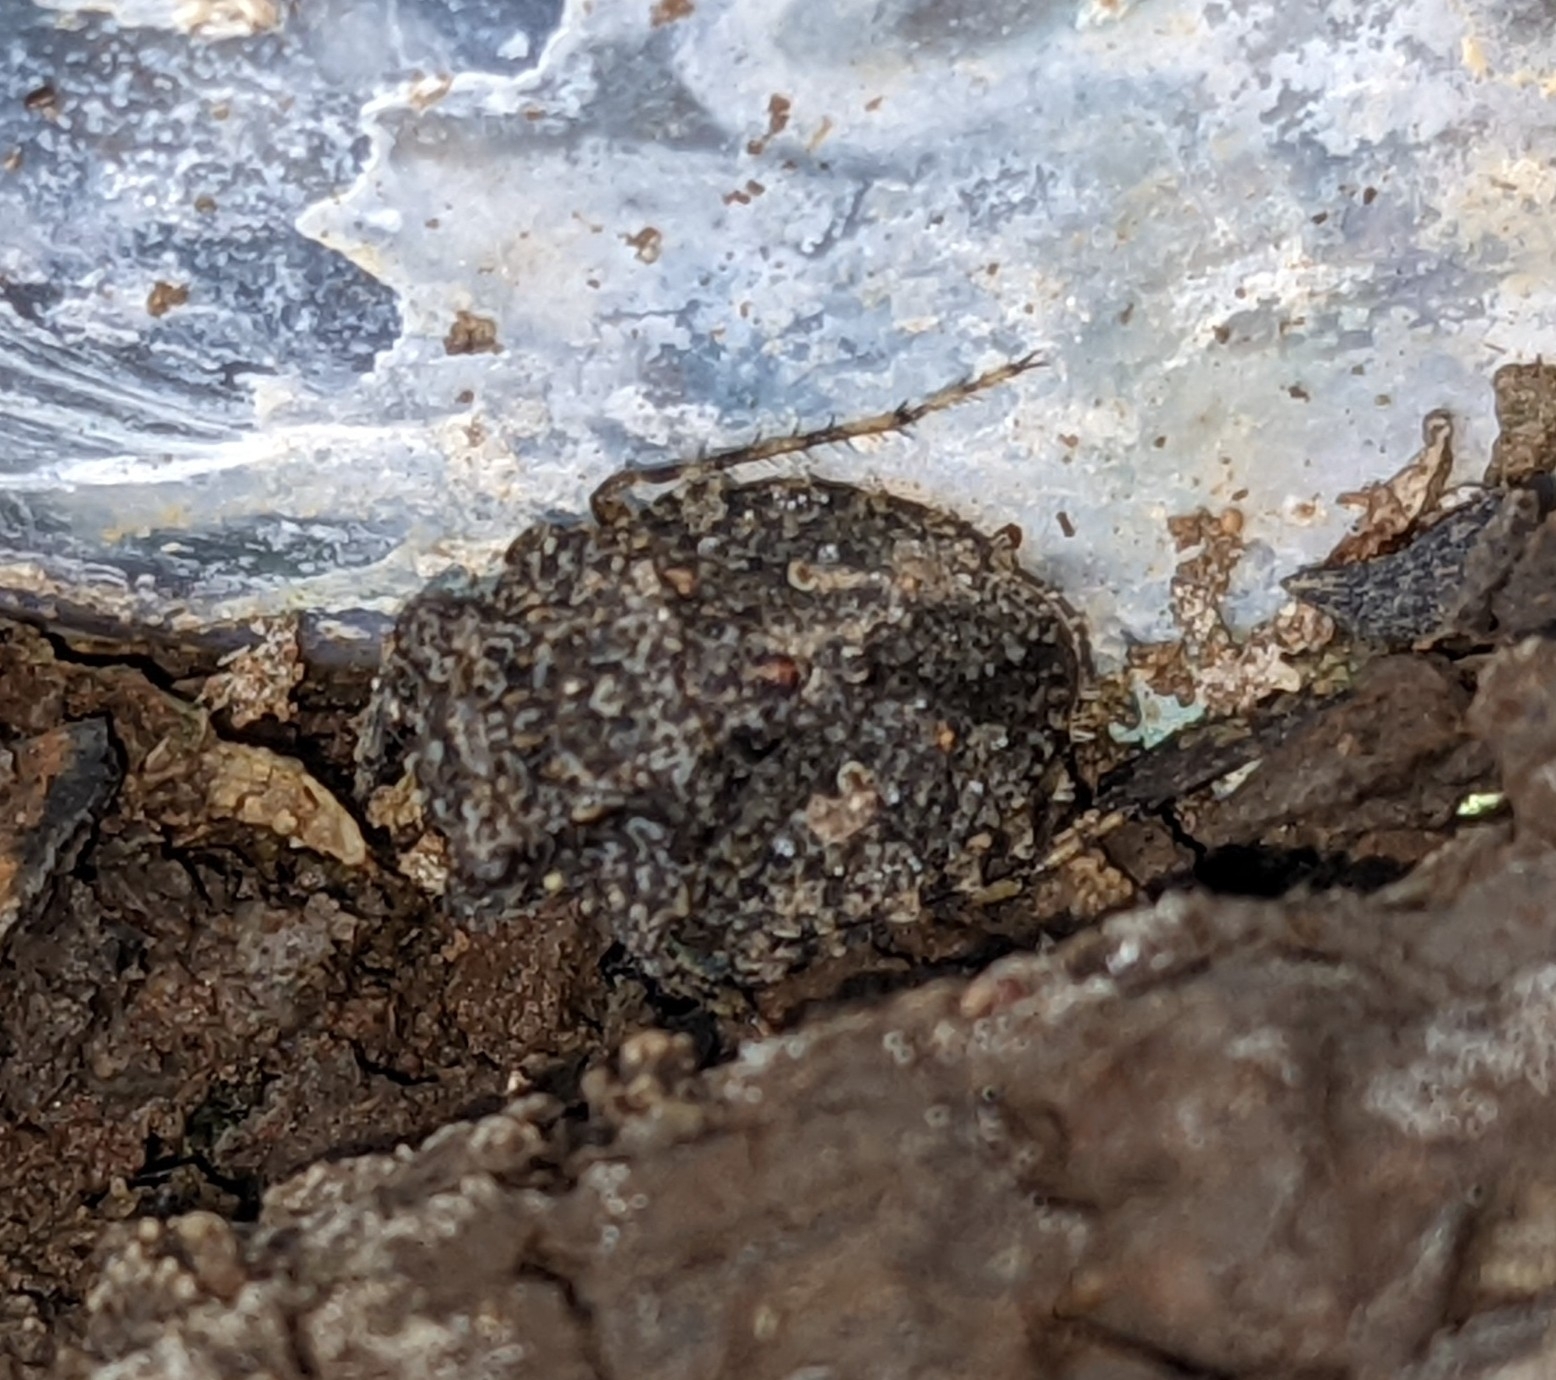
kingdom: Animalia
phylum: Arthropoda
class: Insecta
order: Hemiptera
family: Gelastocoridae
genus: Gelastocoris
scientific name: Gelastocoris oculatus
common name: Toad bug
